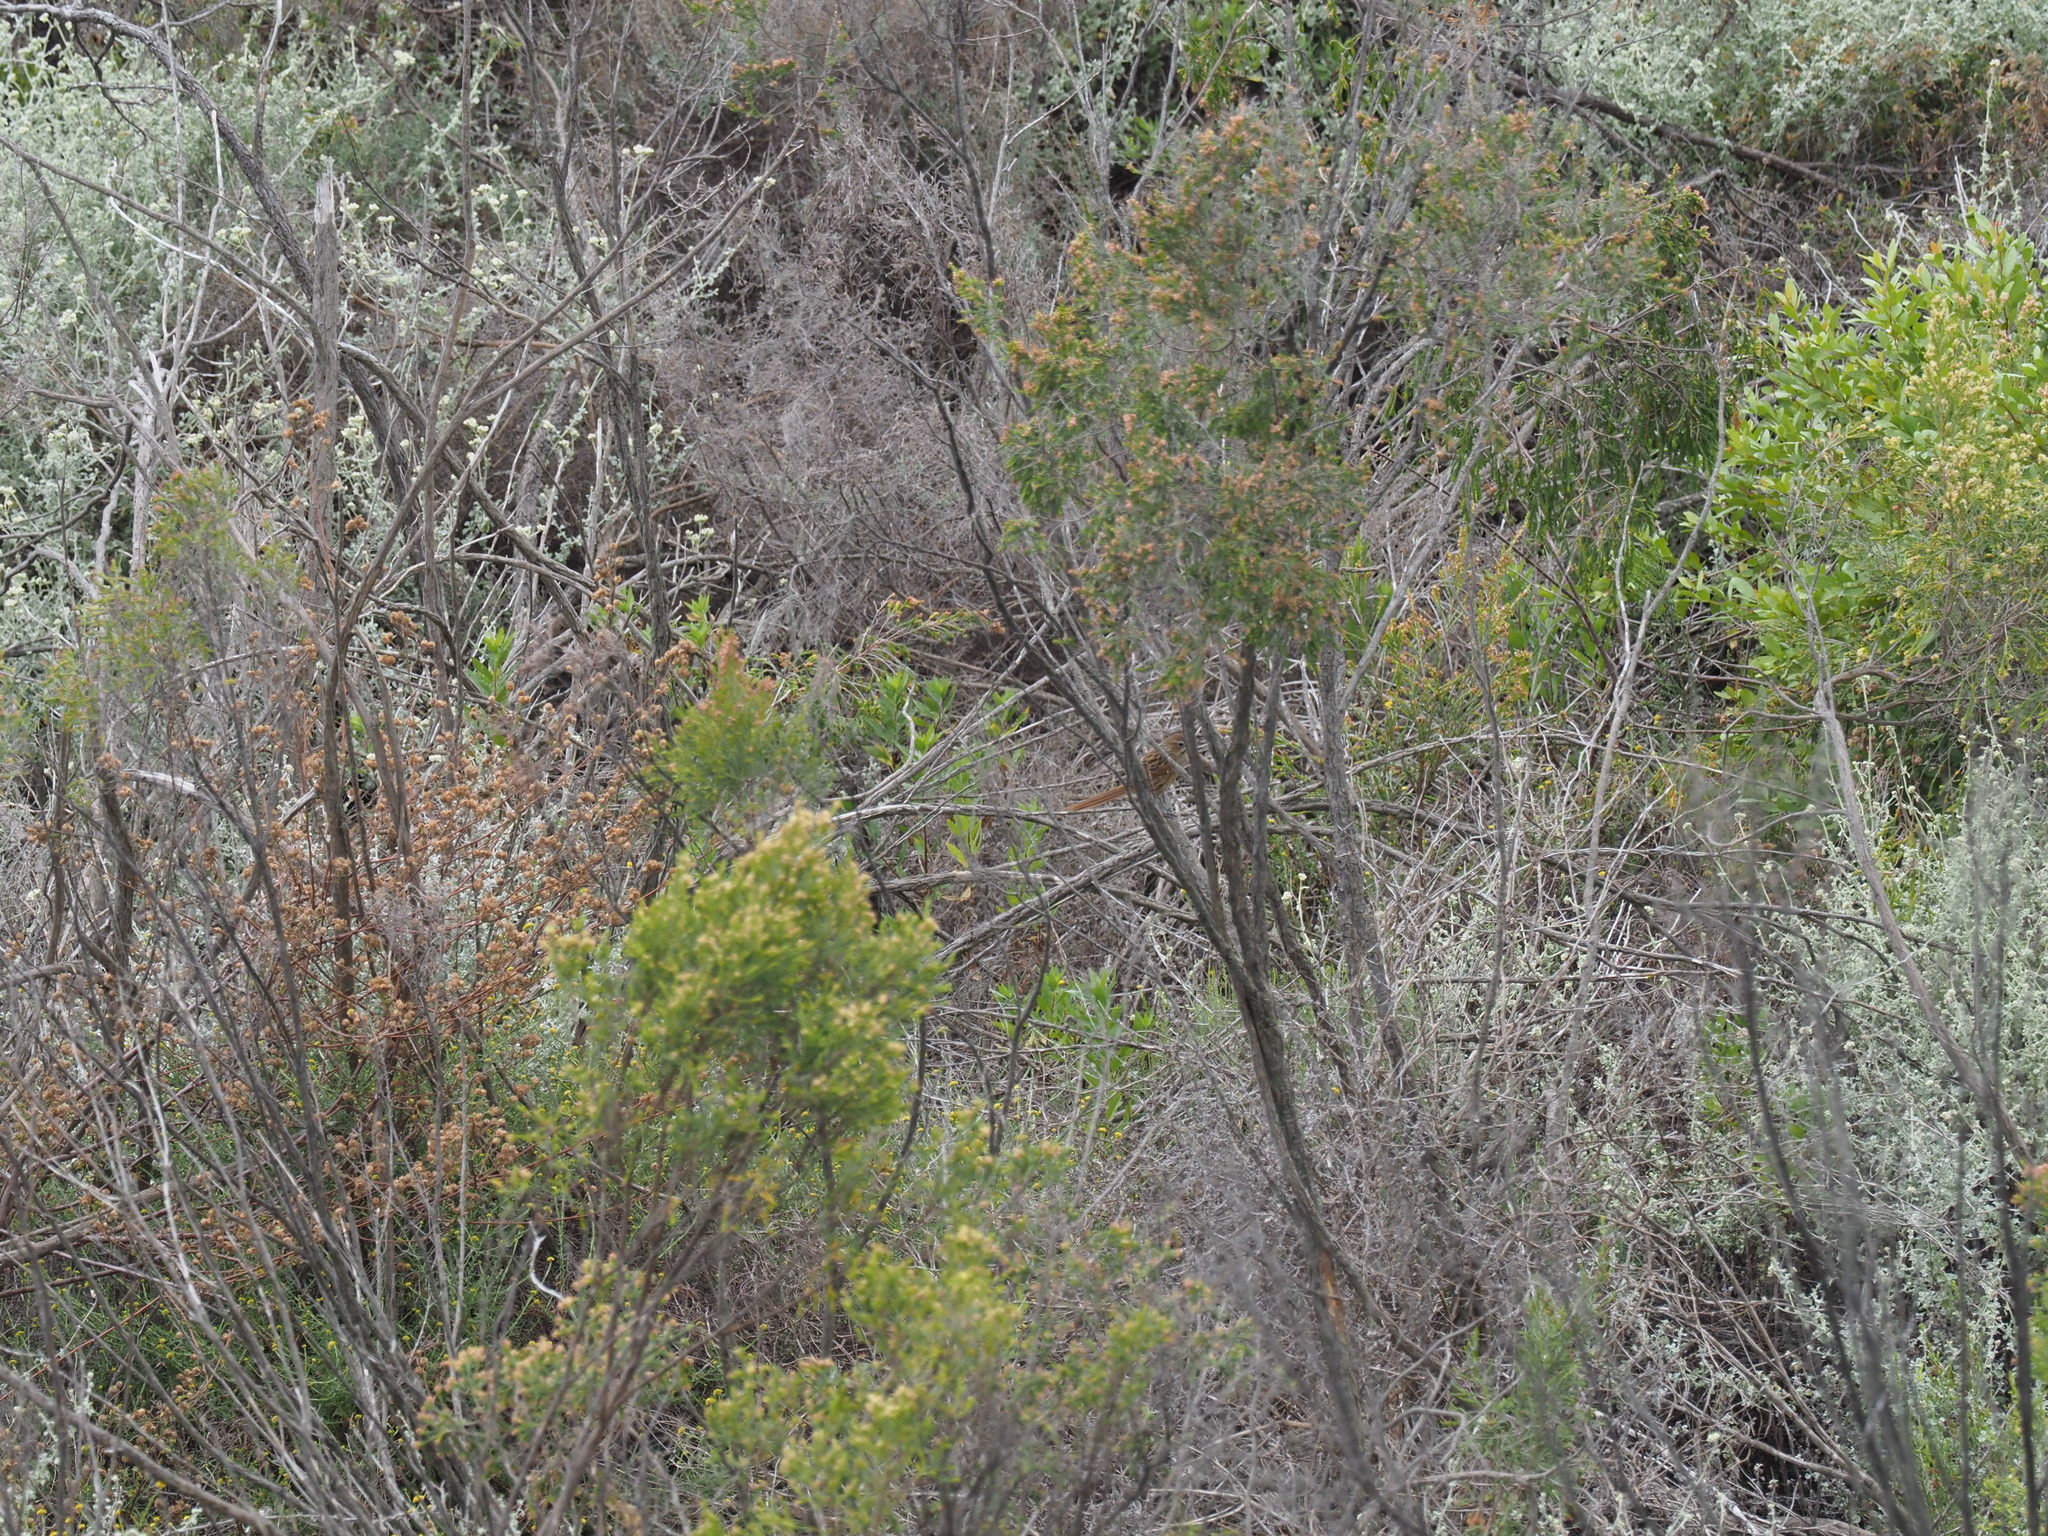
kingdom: Animalia
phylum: Chordata
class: Aves
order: Passeriformes
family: Macrosphenidae
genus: Sphenoeacus
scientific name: Sphenoeacus afer
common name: Cape grassbird
